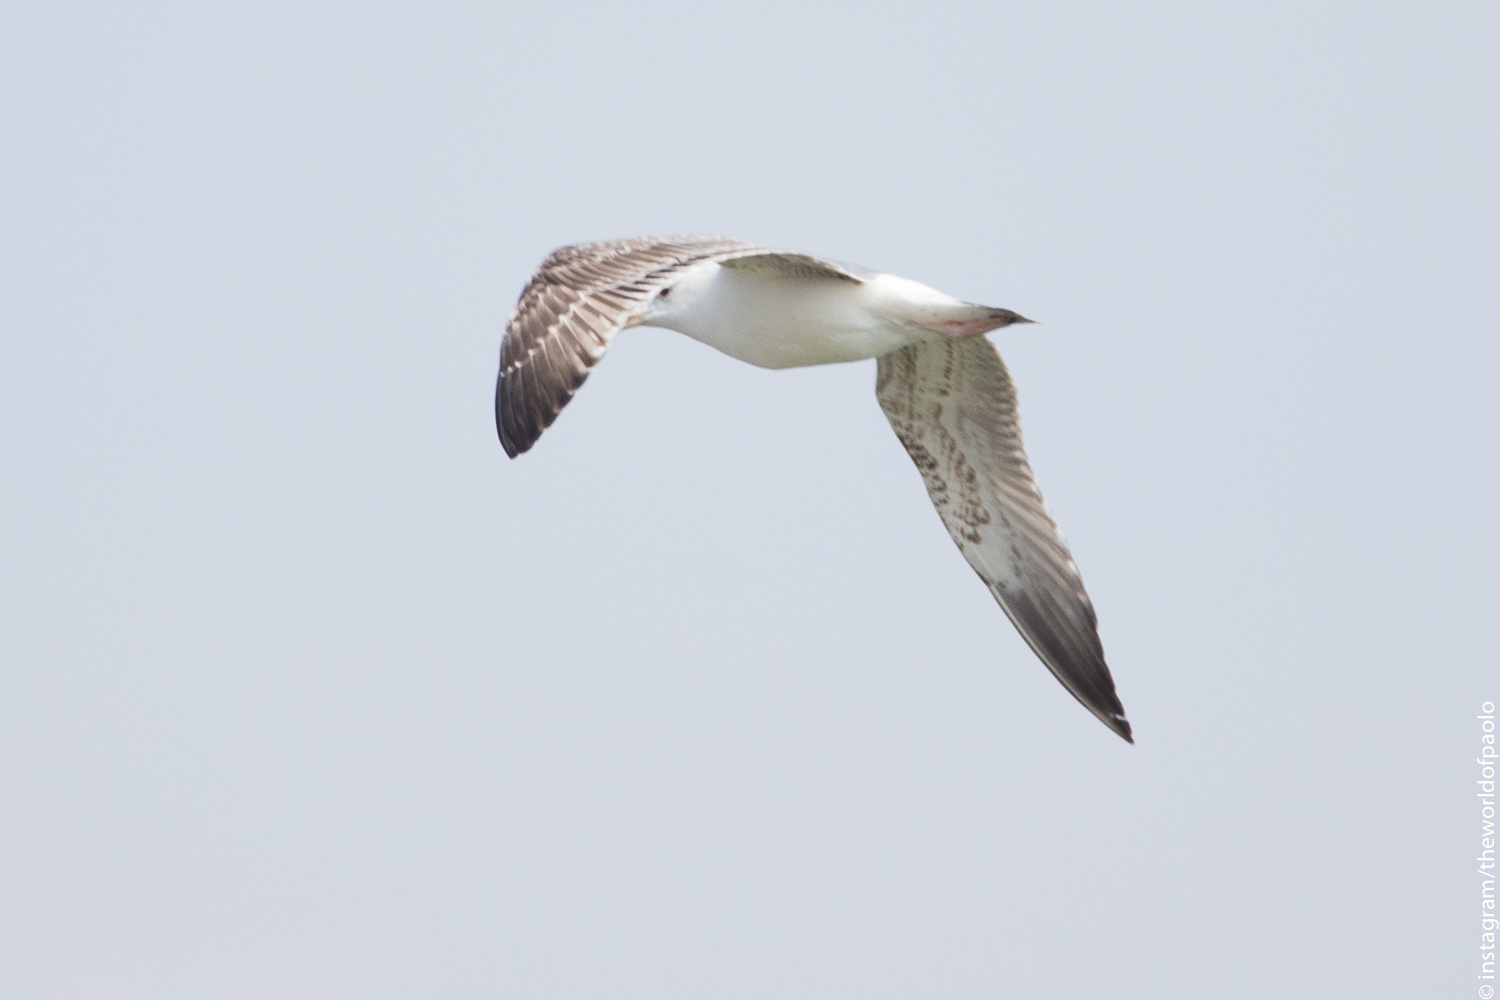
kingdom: Animalia
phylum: Chordata
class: Aves
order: Charadriiformes
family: Laridae
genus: Larus
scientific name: Larus argentatus
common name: Herring gull
